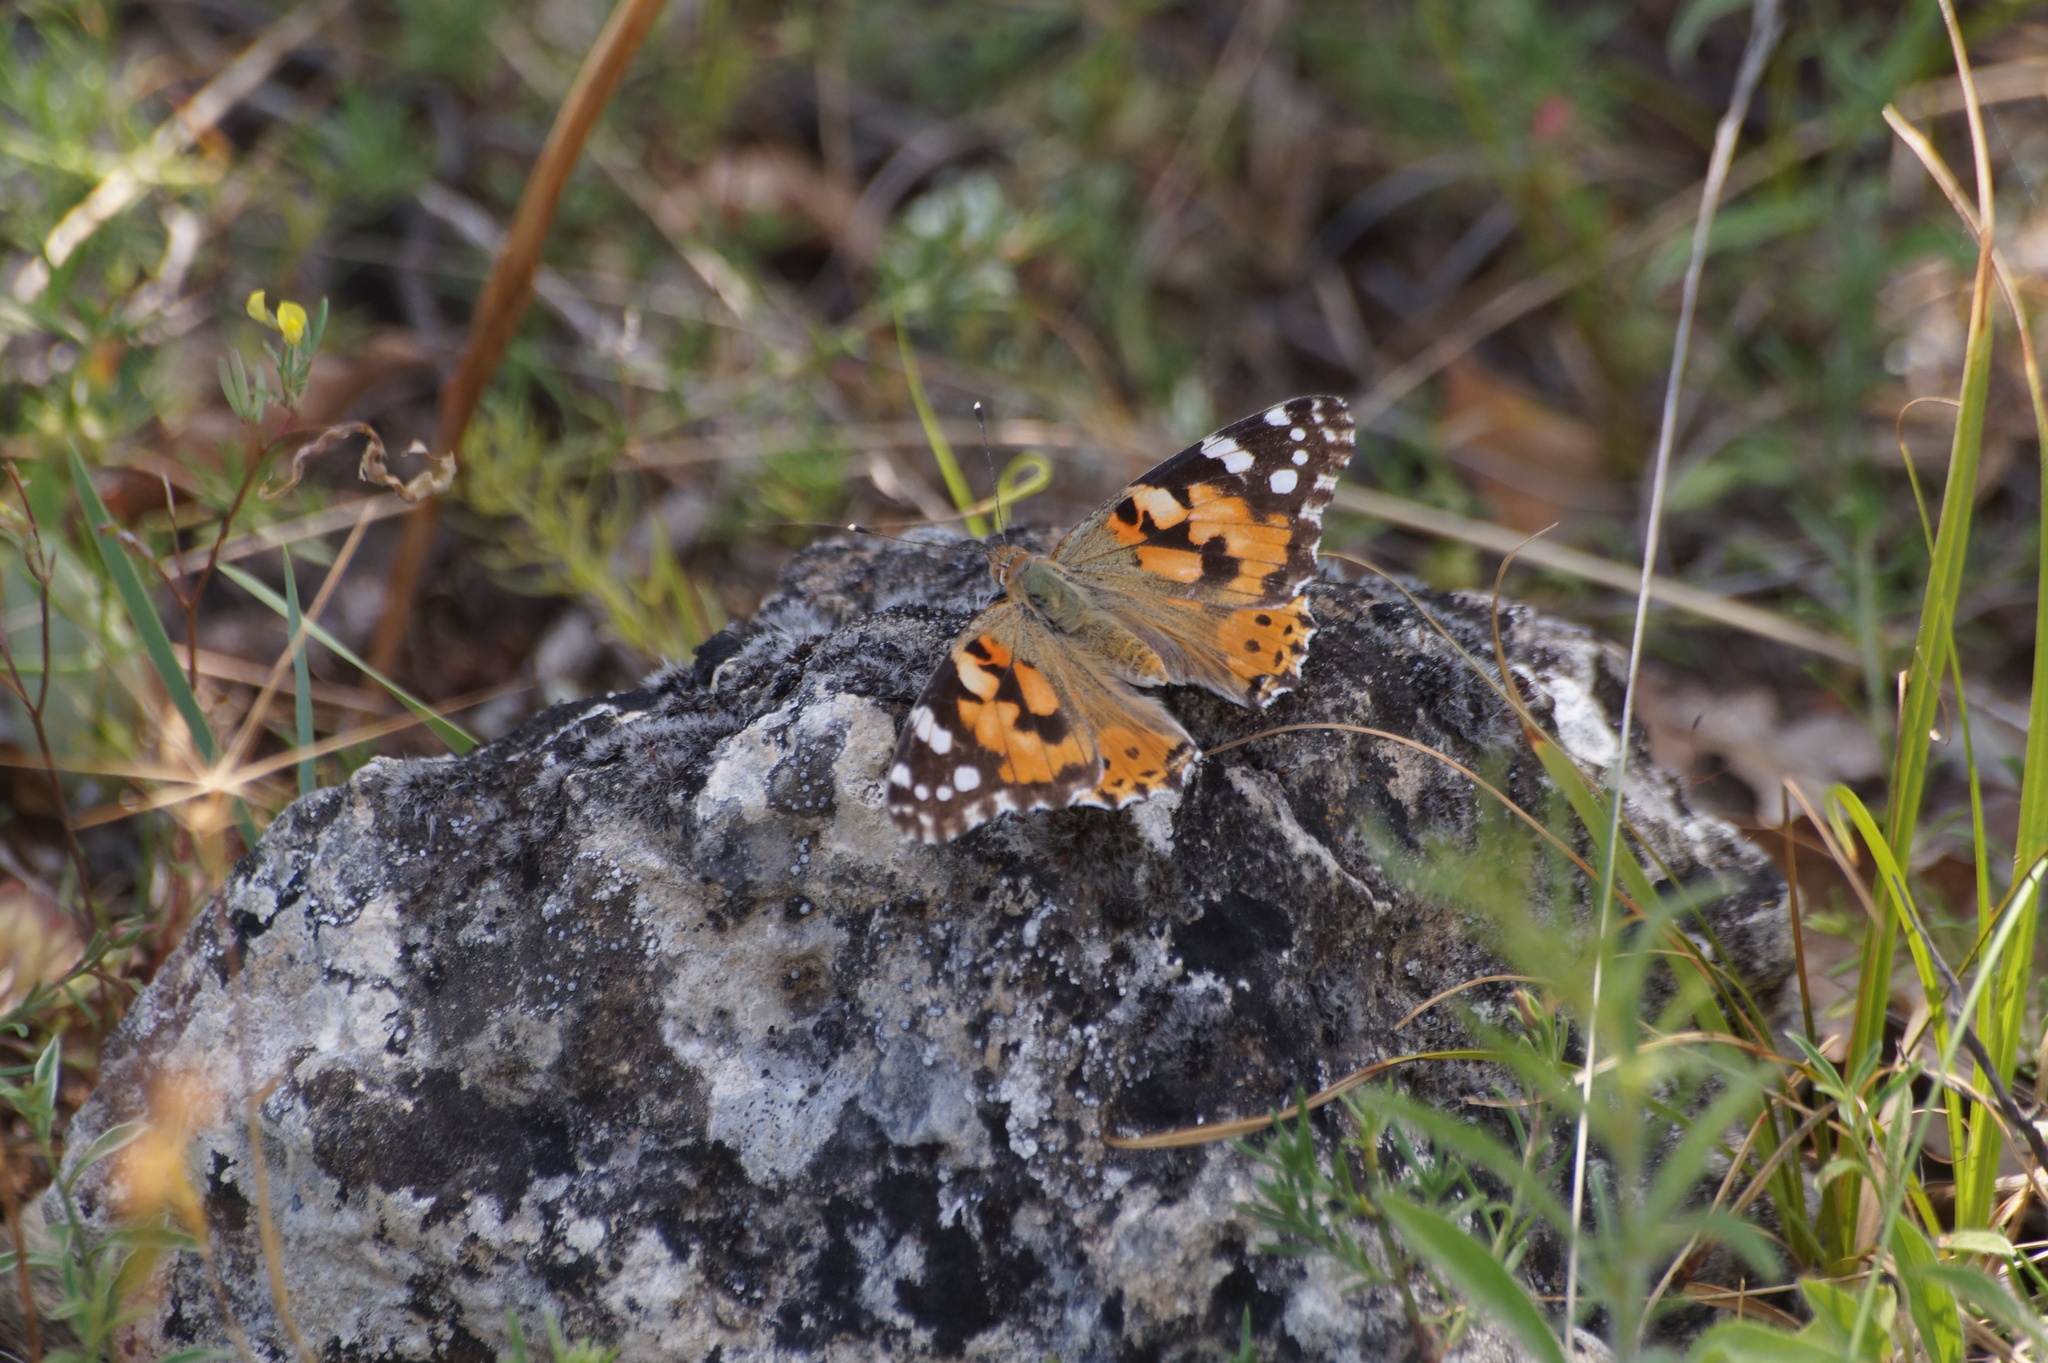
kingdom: Animalia
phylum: Arthropoda
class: Insecta
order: Lepidoptera
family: Nymphalidae
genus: Vanessa
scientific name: Vanessa cardui
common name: Painted lady
